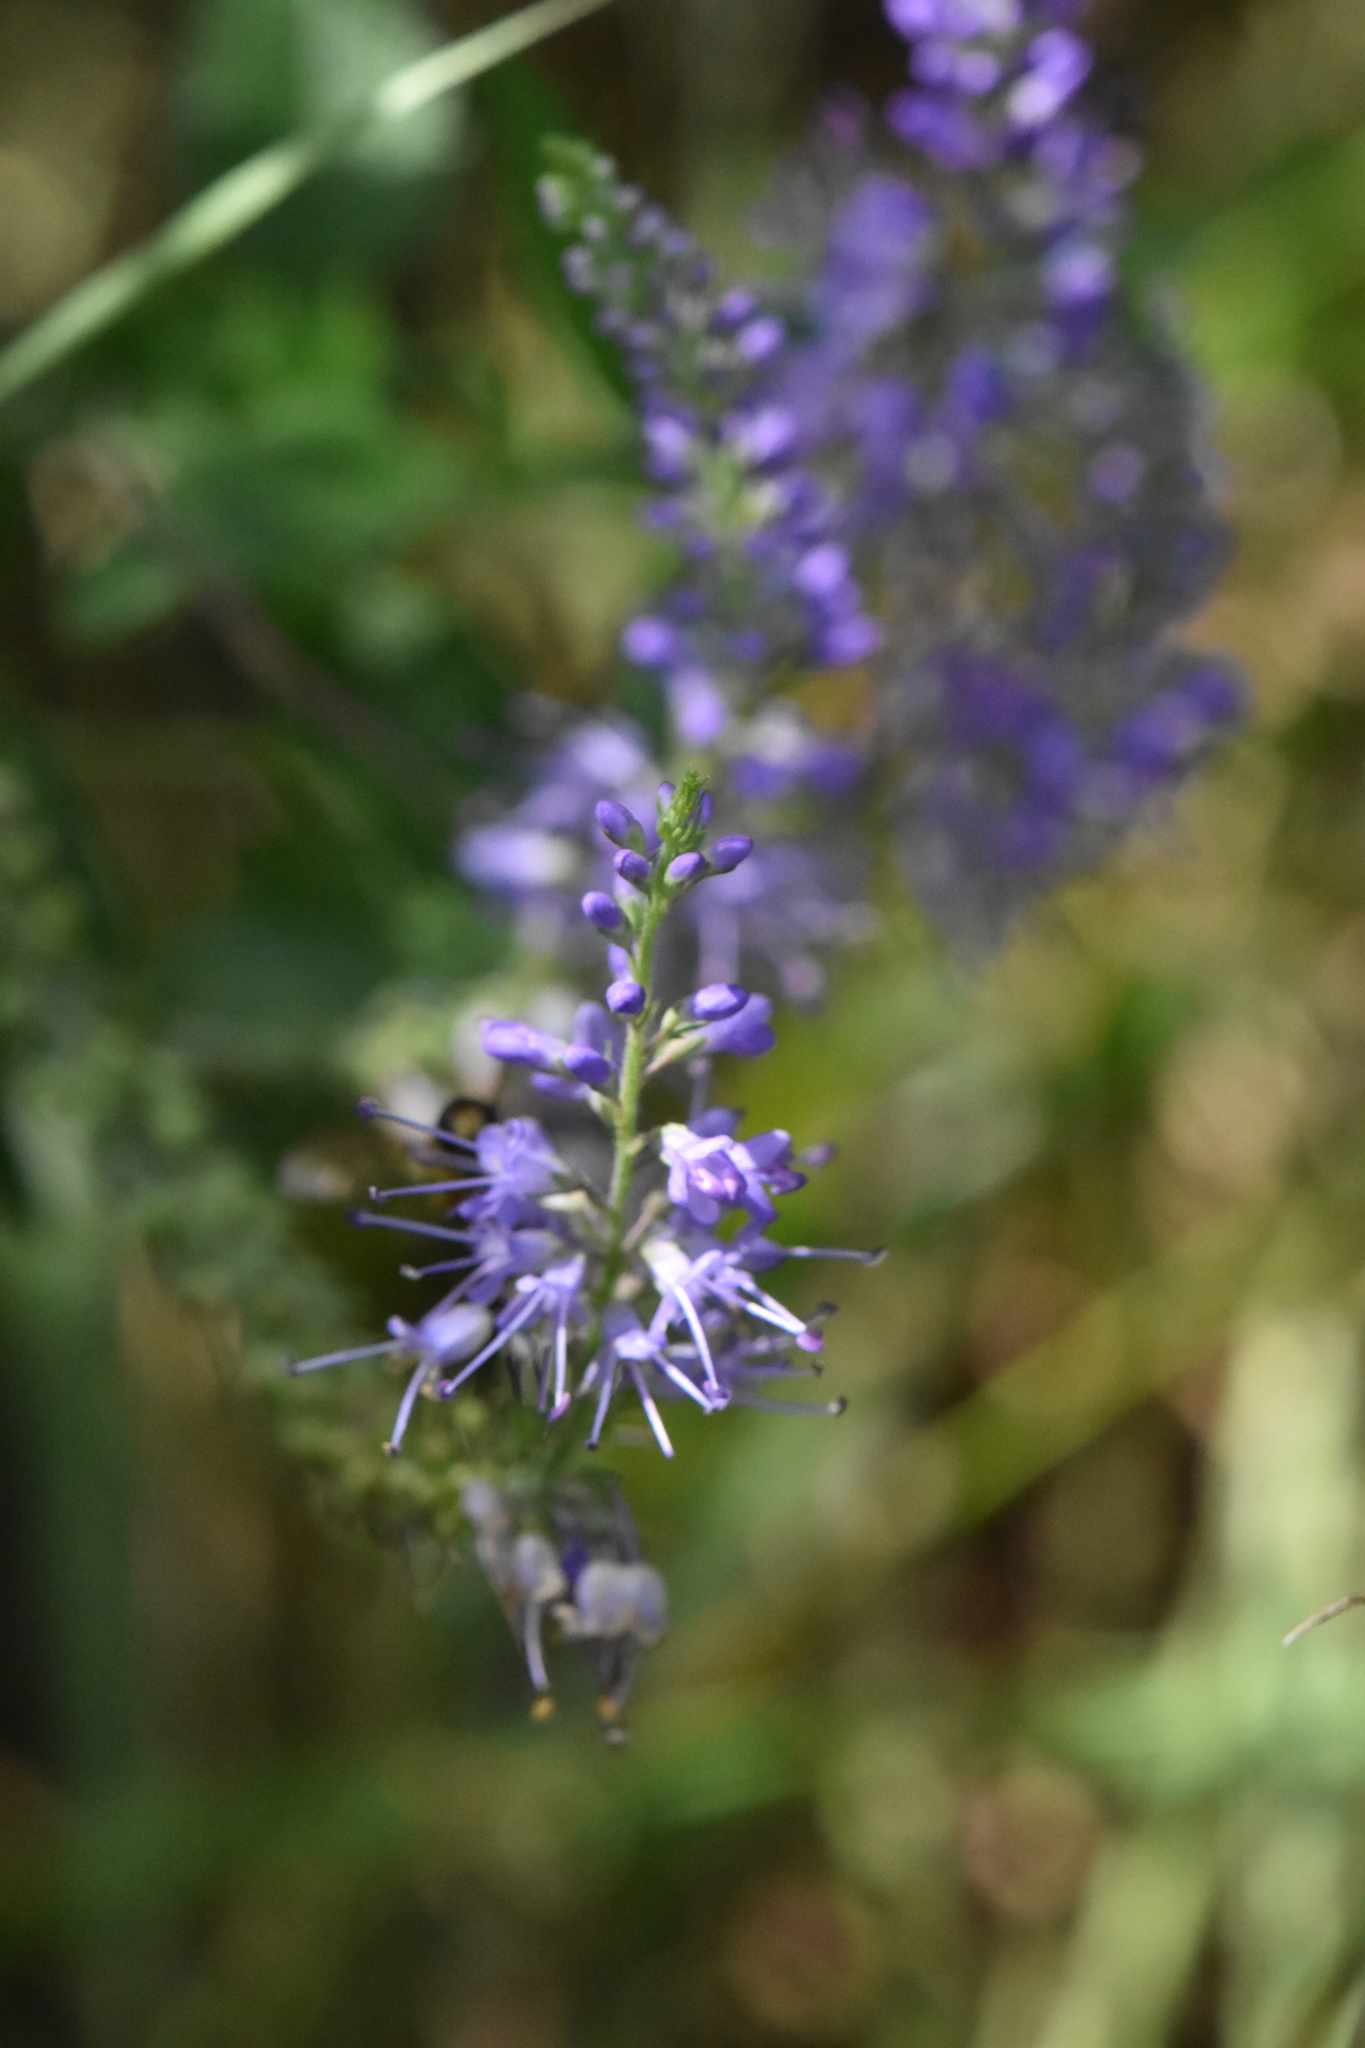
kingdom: Plantae
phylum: Tracheophyta
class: Magnoliopsida
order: Lamiales
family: Plantaginaceae
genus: Veronica
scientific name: Veronica longifolia
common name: Garden speedwell
